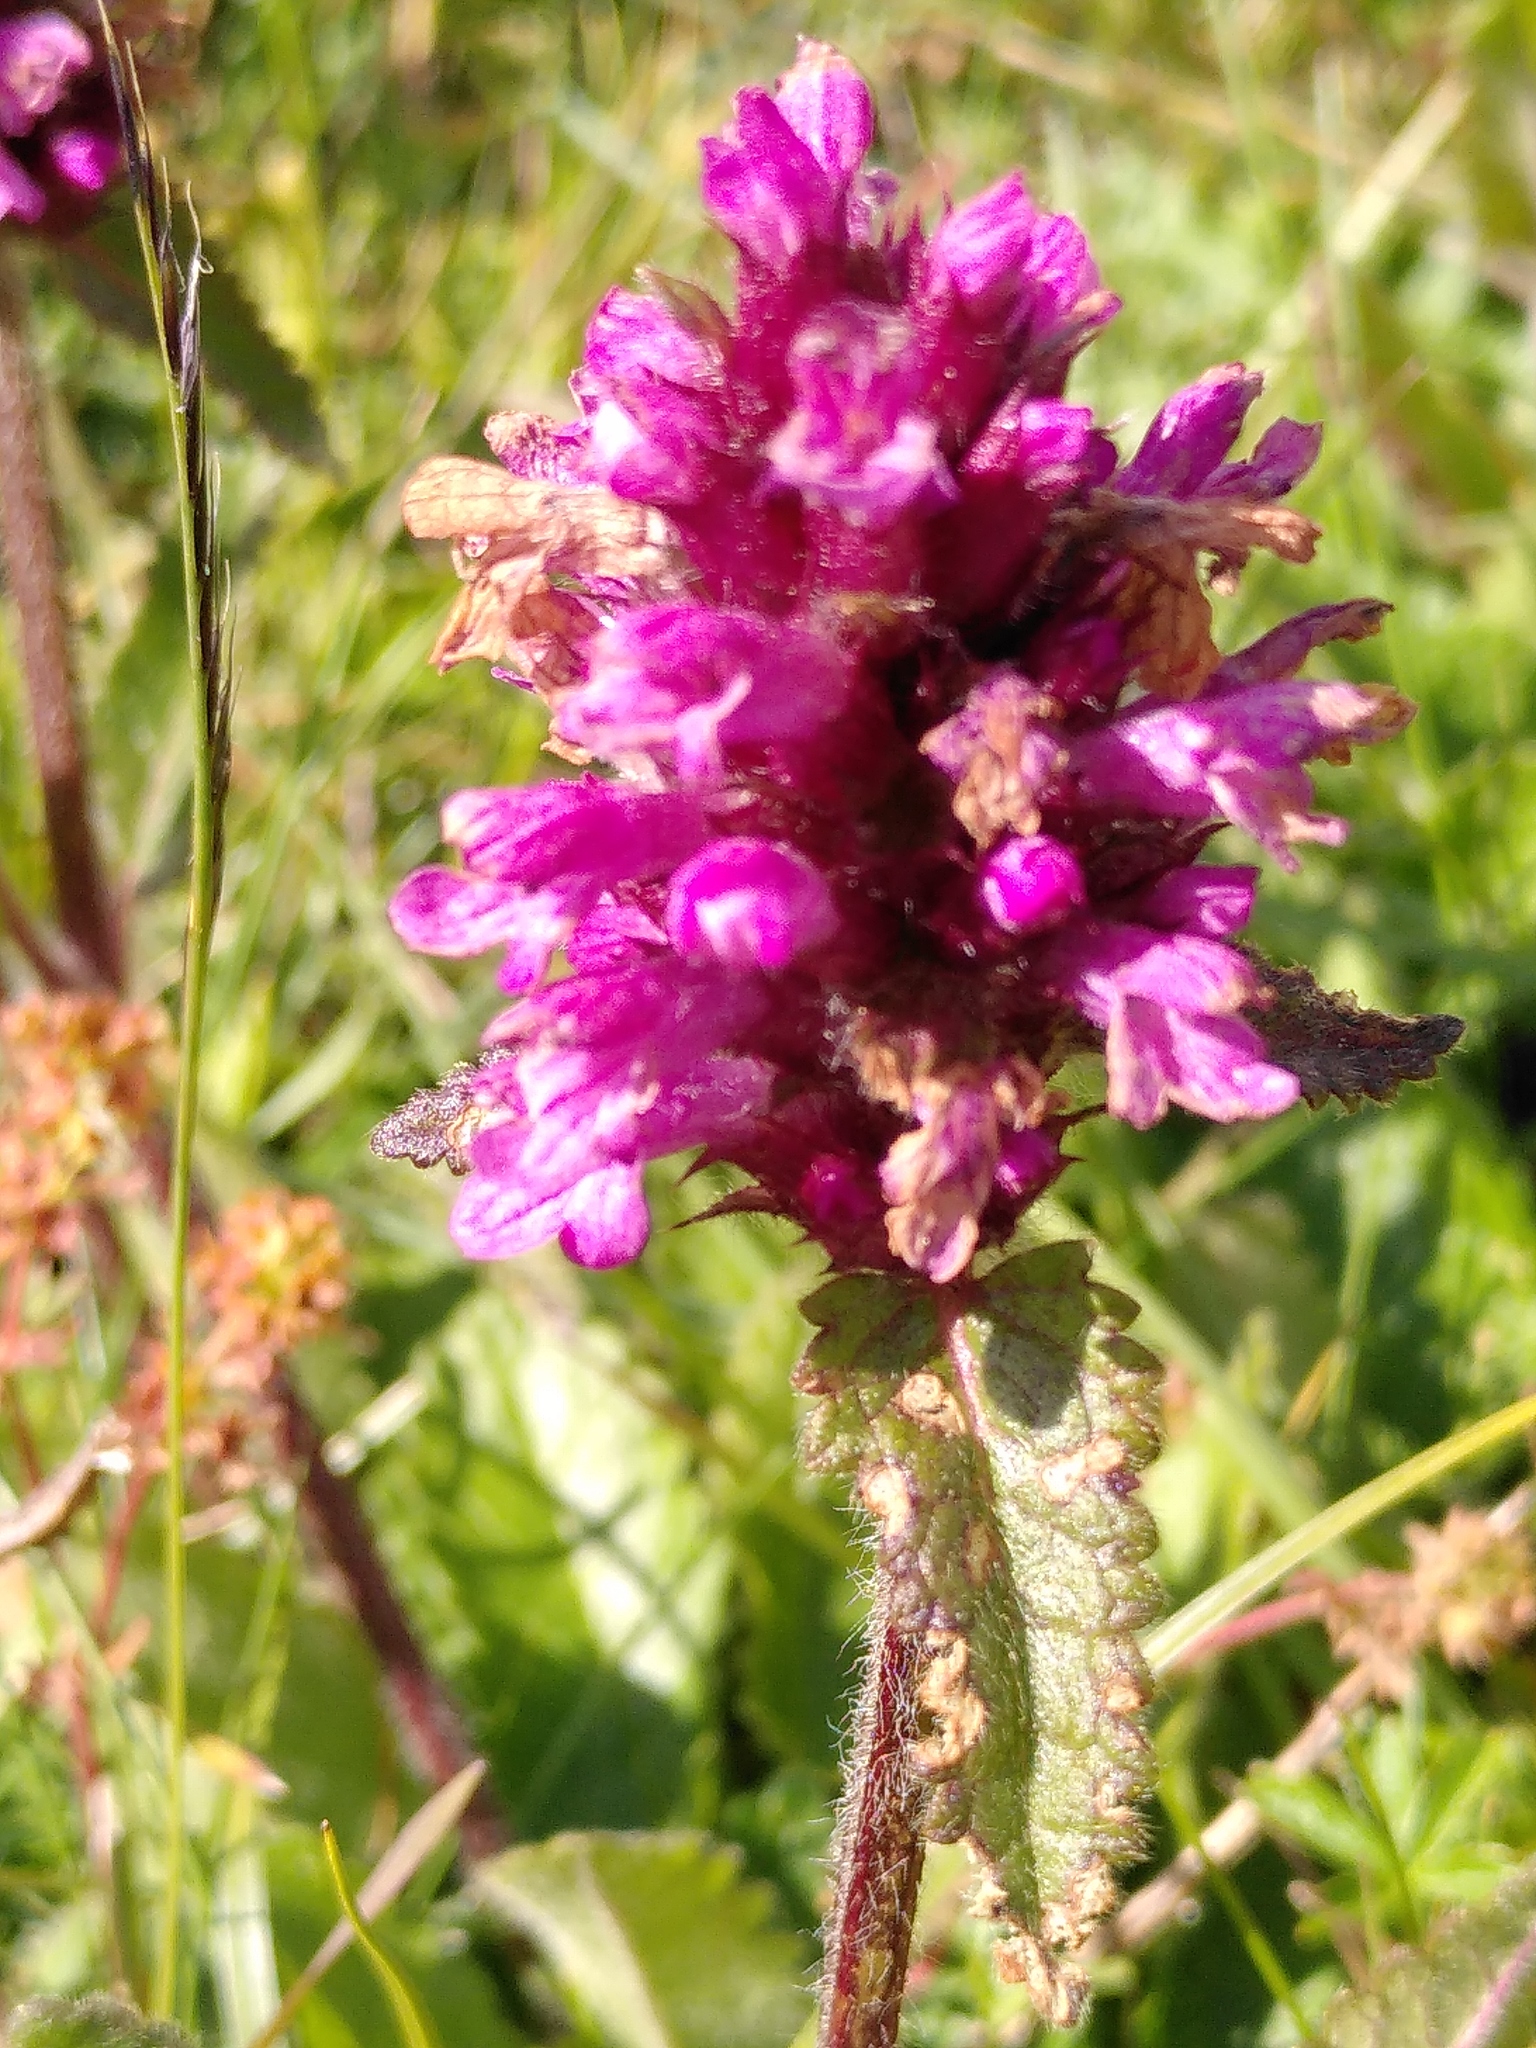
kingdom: Plantae
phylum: Tracheophyta
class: Magnoliopsida
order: Lamiales
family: Lamiaceae
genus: Betonica
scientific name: Betonica hirsuta
